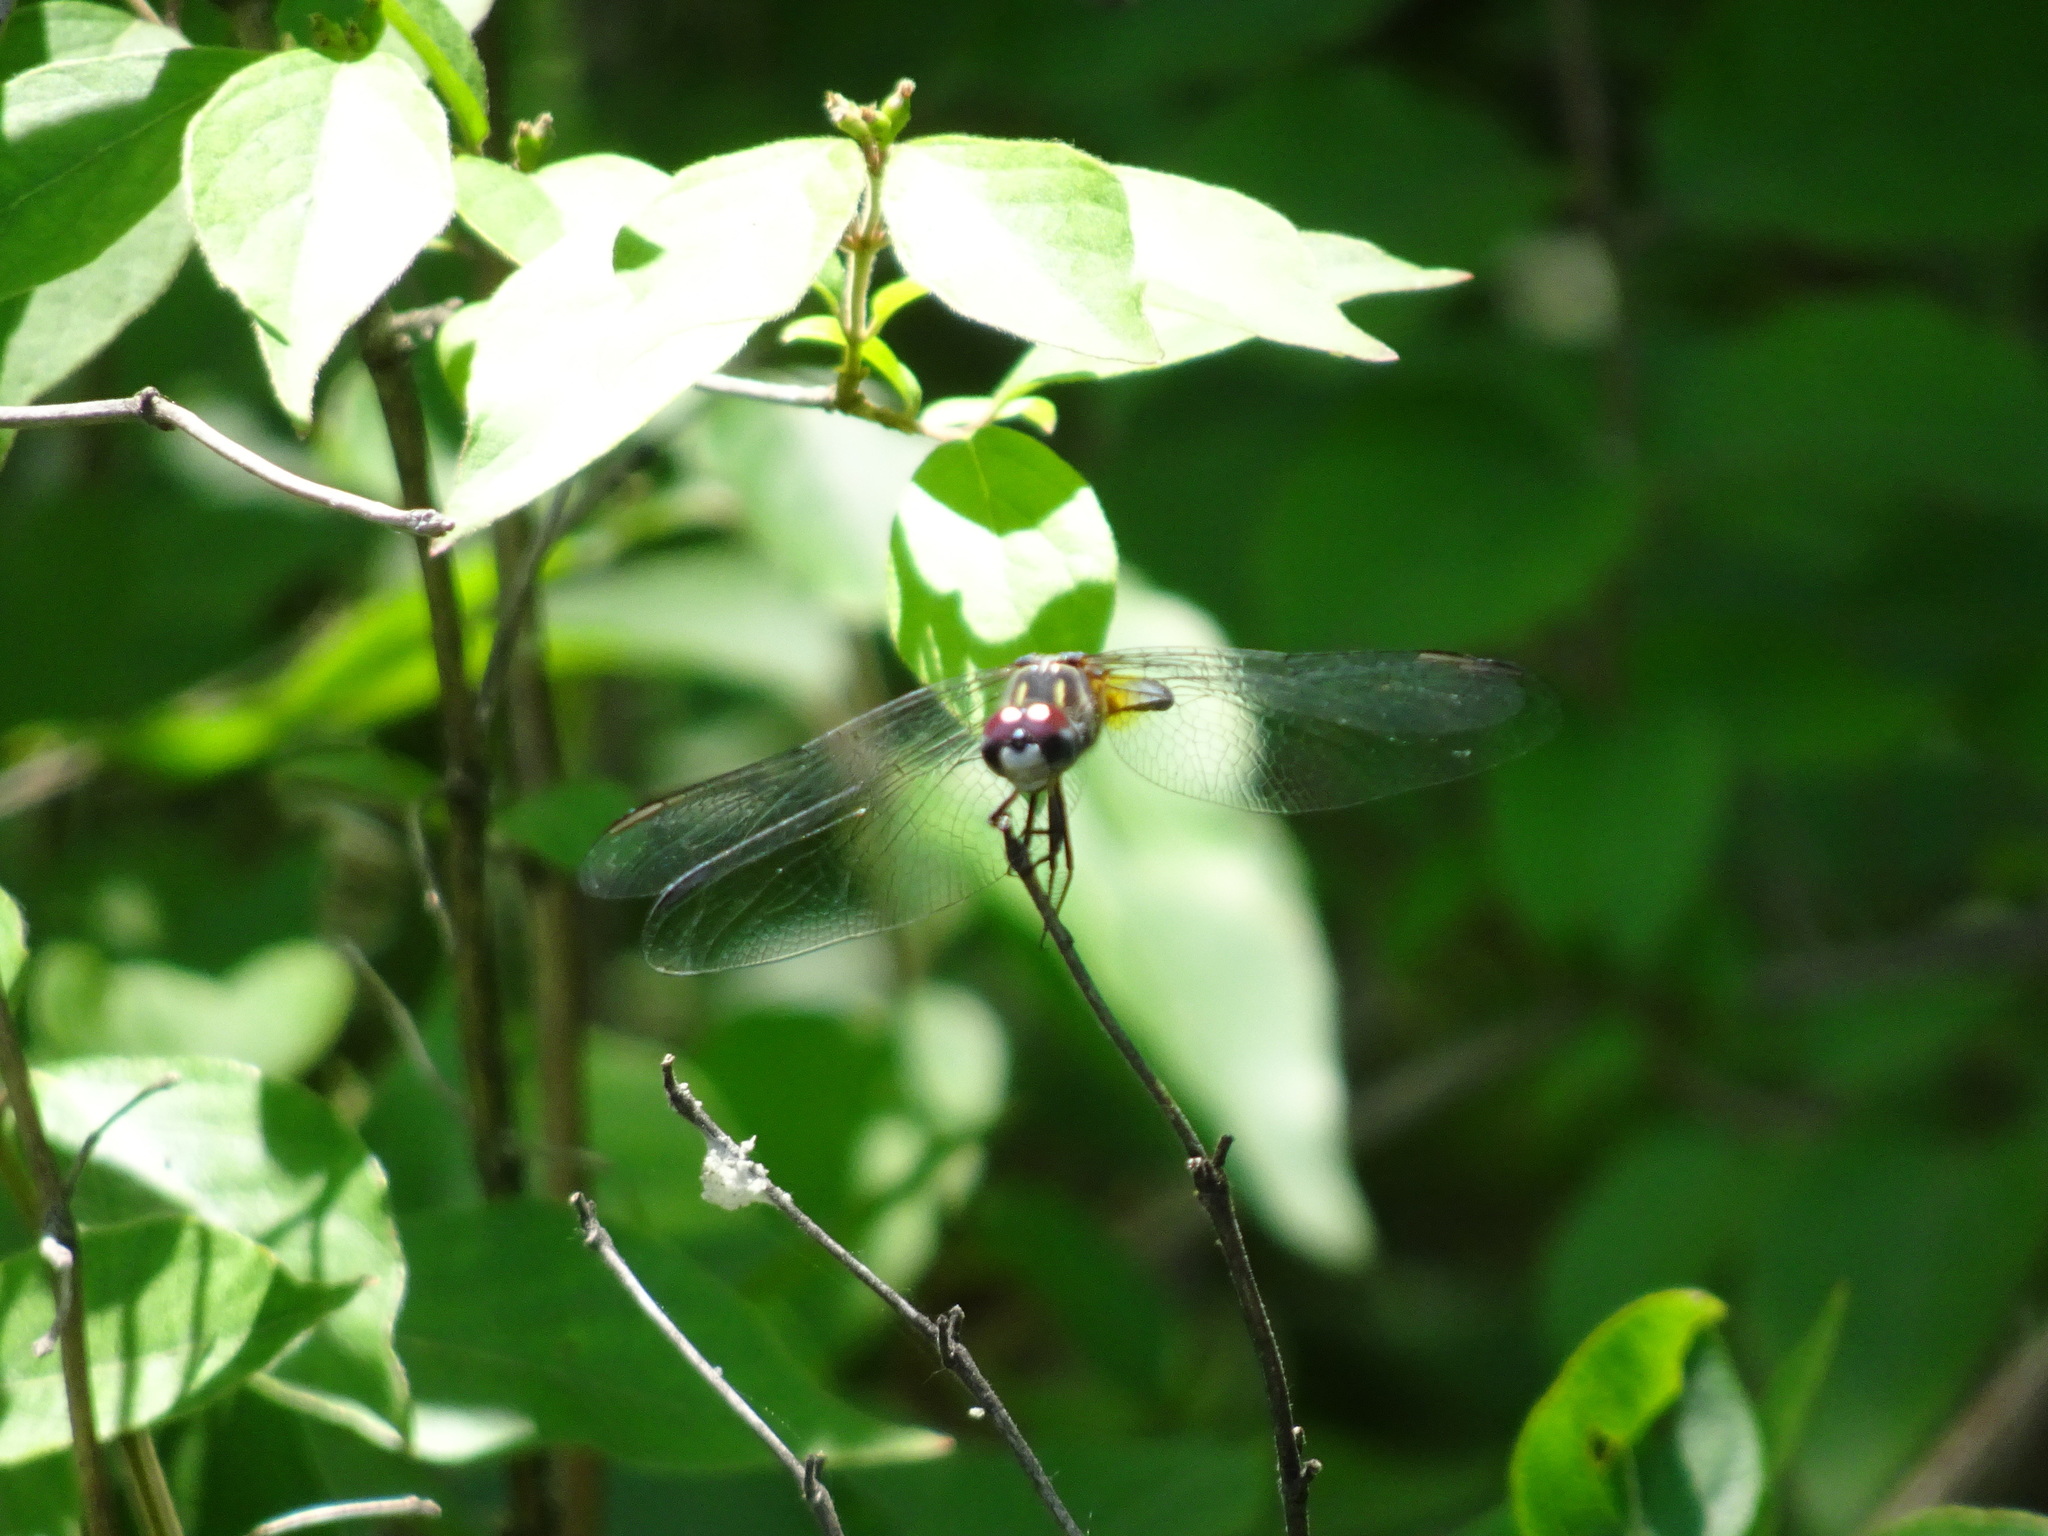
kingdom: Animalia
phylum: Arthropoda
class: Insecta
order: Odonata
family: Libellulidae
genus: Pachydiplax
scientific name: Pachydiplax longipennis
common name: Blue dasher
